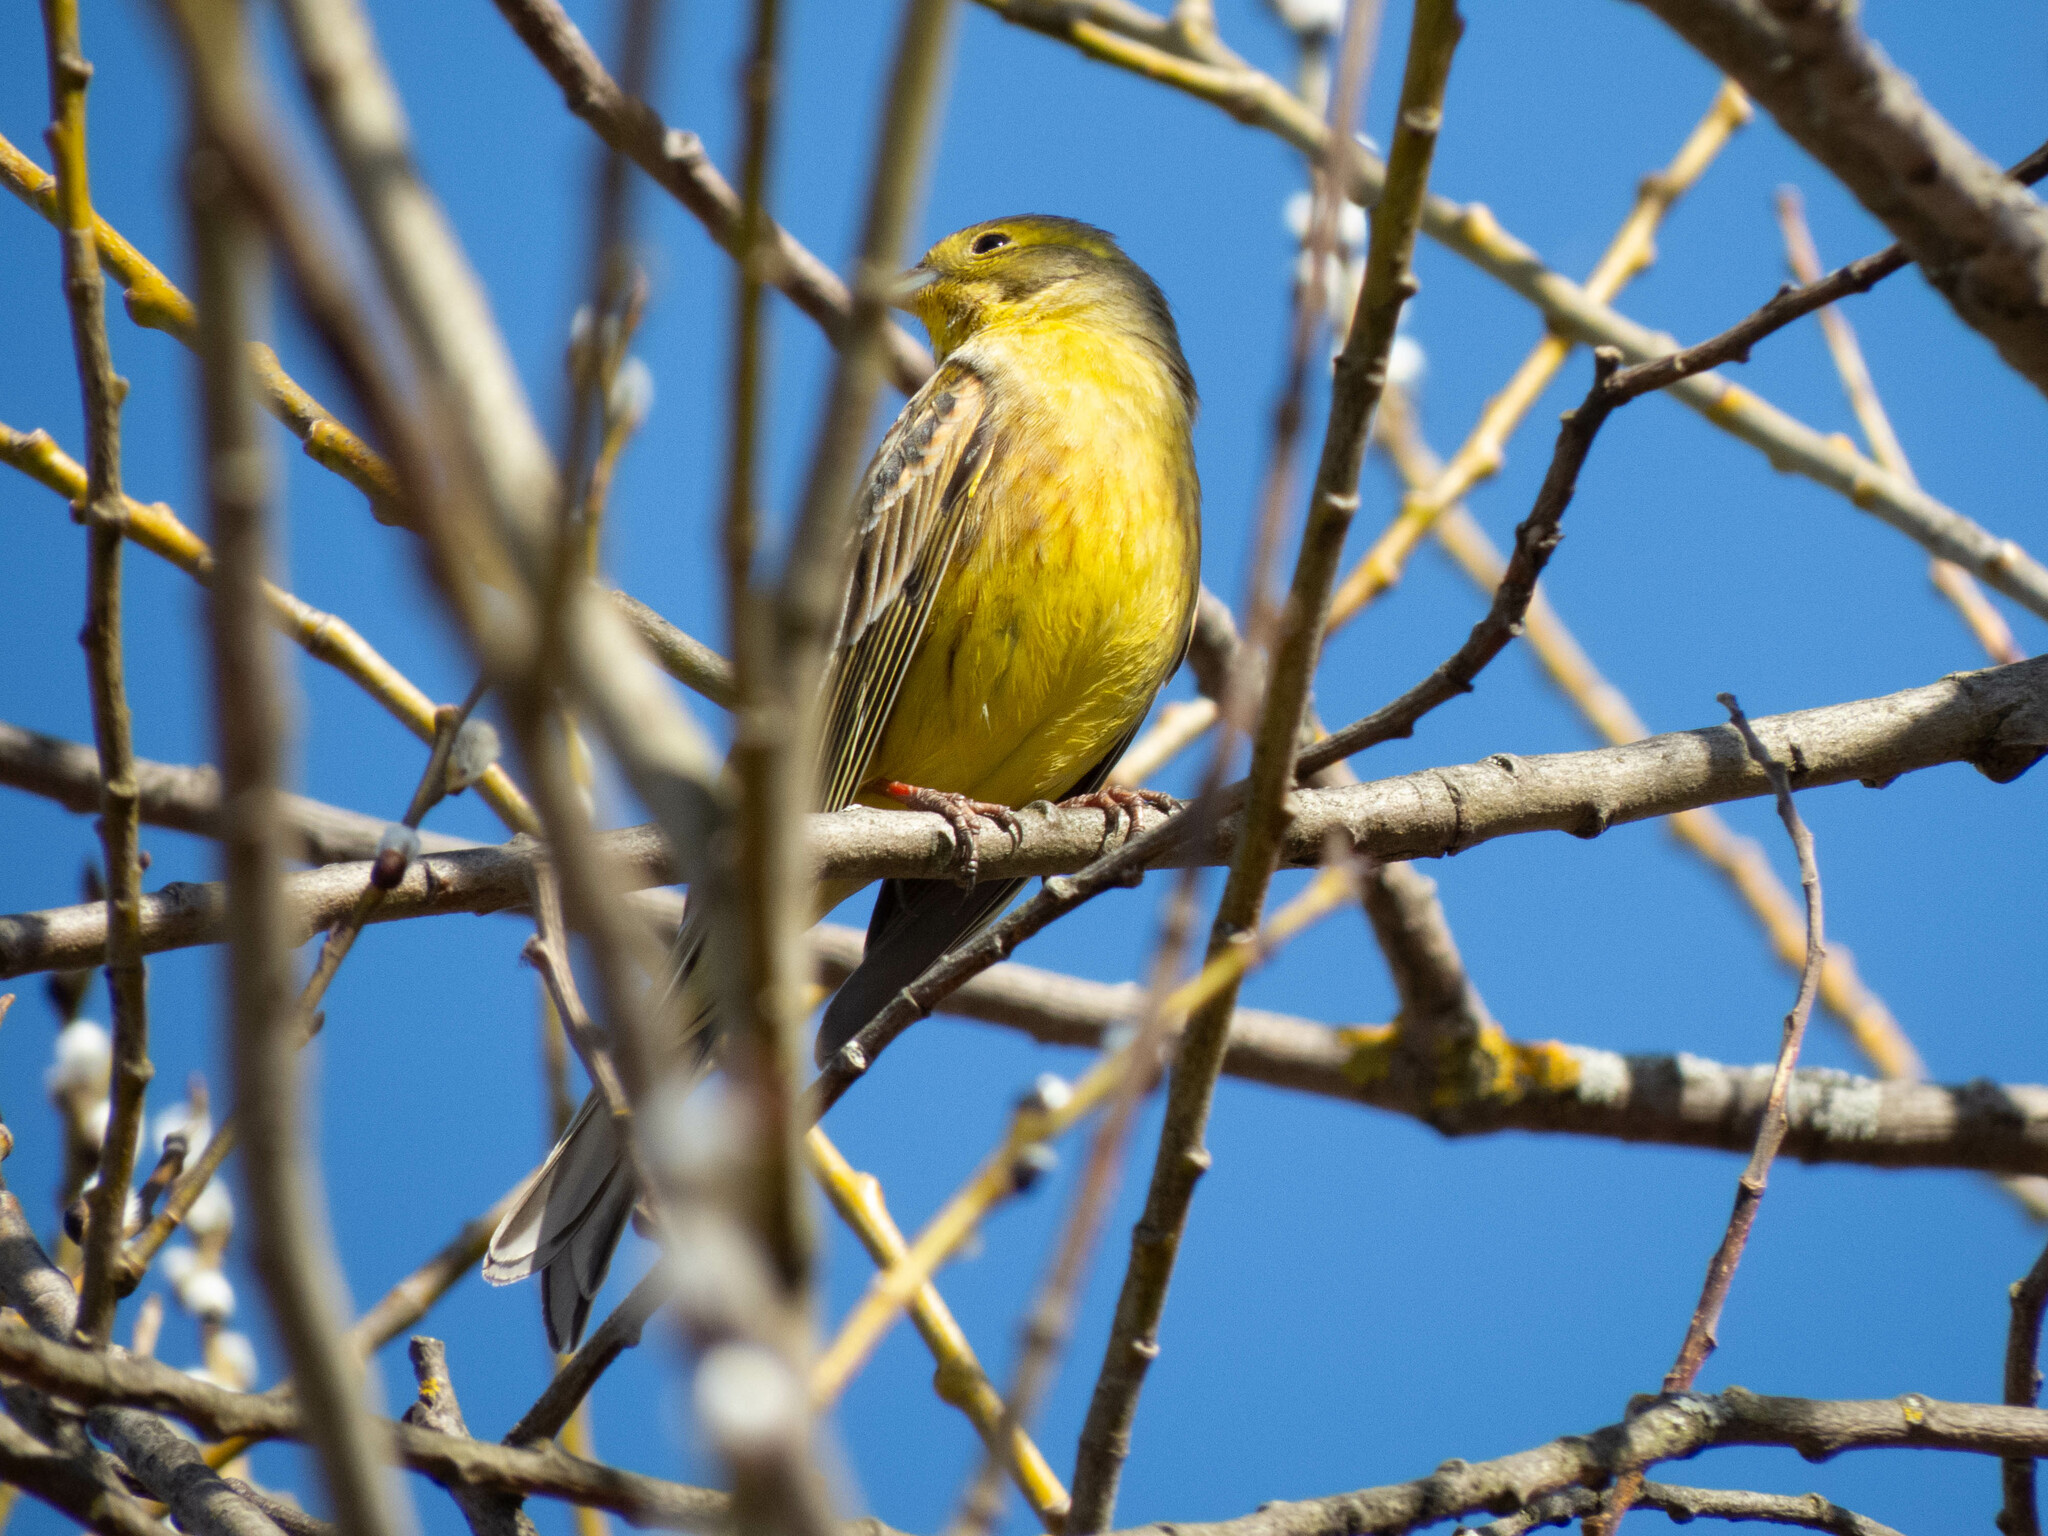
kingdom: Animalia
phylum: Chordata
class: Aves
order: Passeriformes
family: Emberizidae
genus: Emberiza
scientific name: Emberiza citrinella
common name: Yellowhammer
